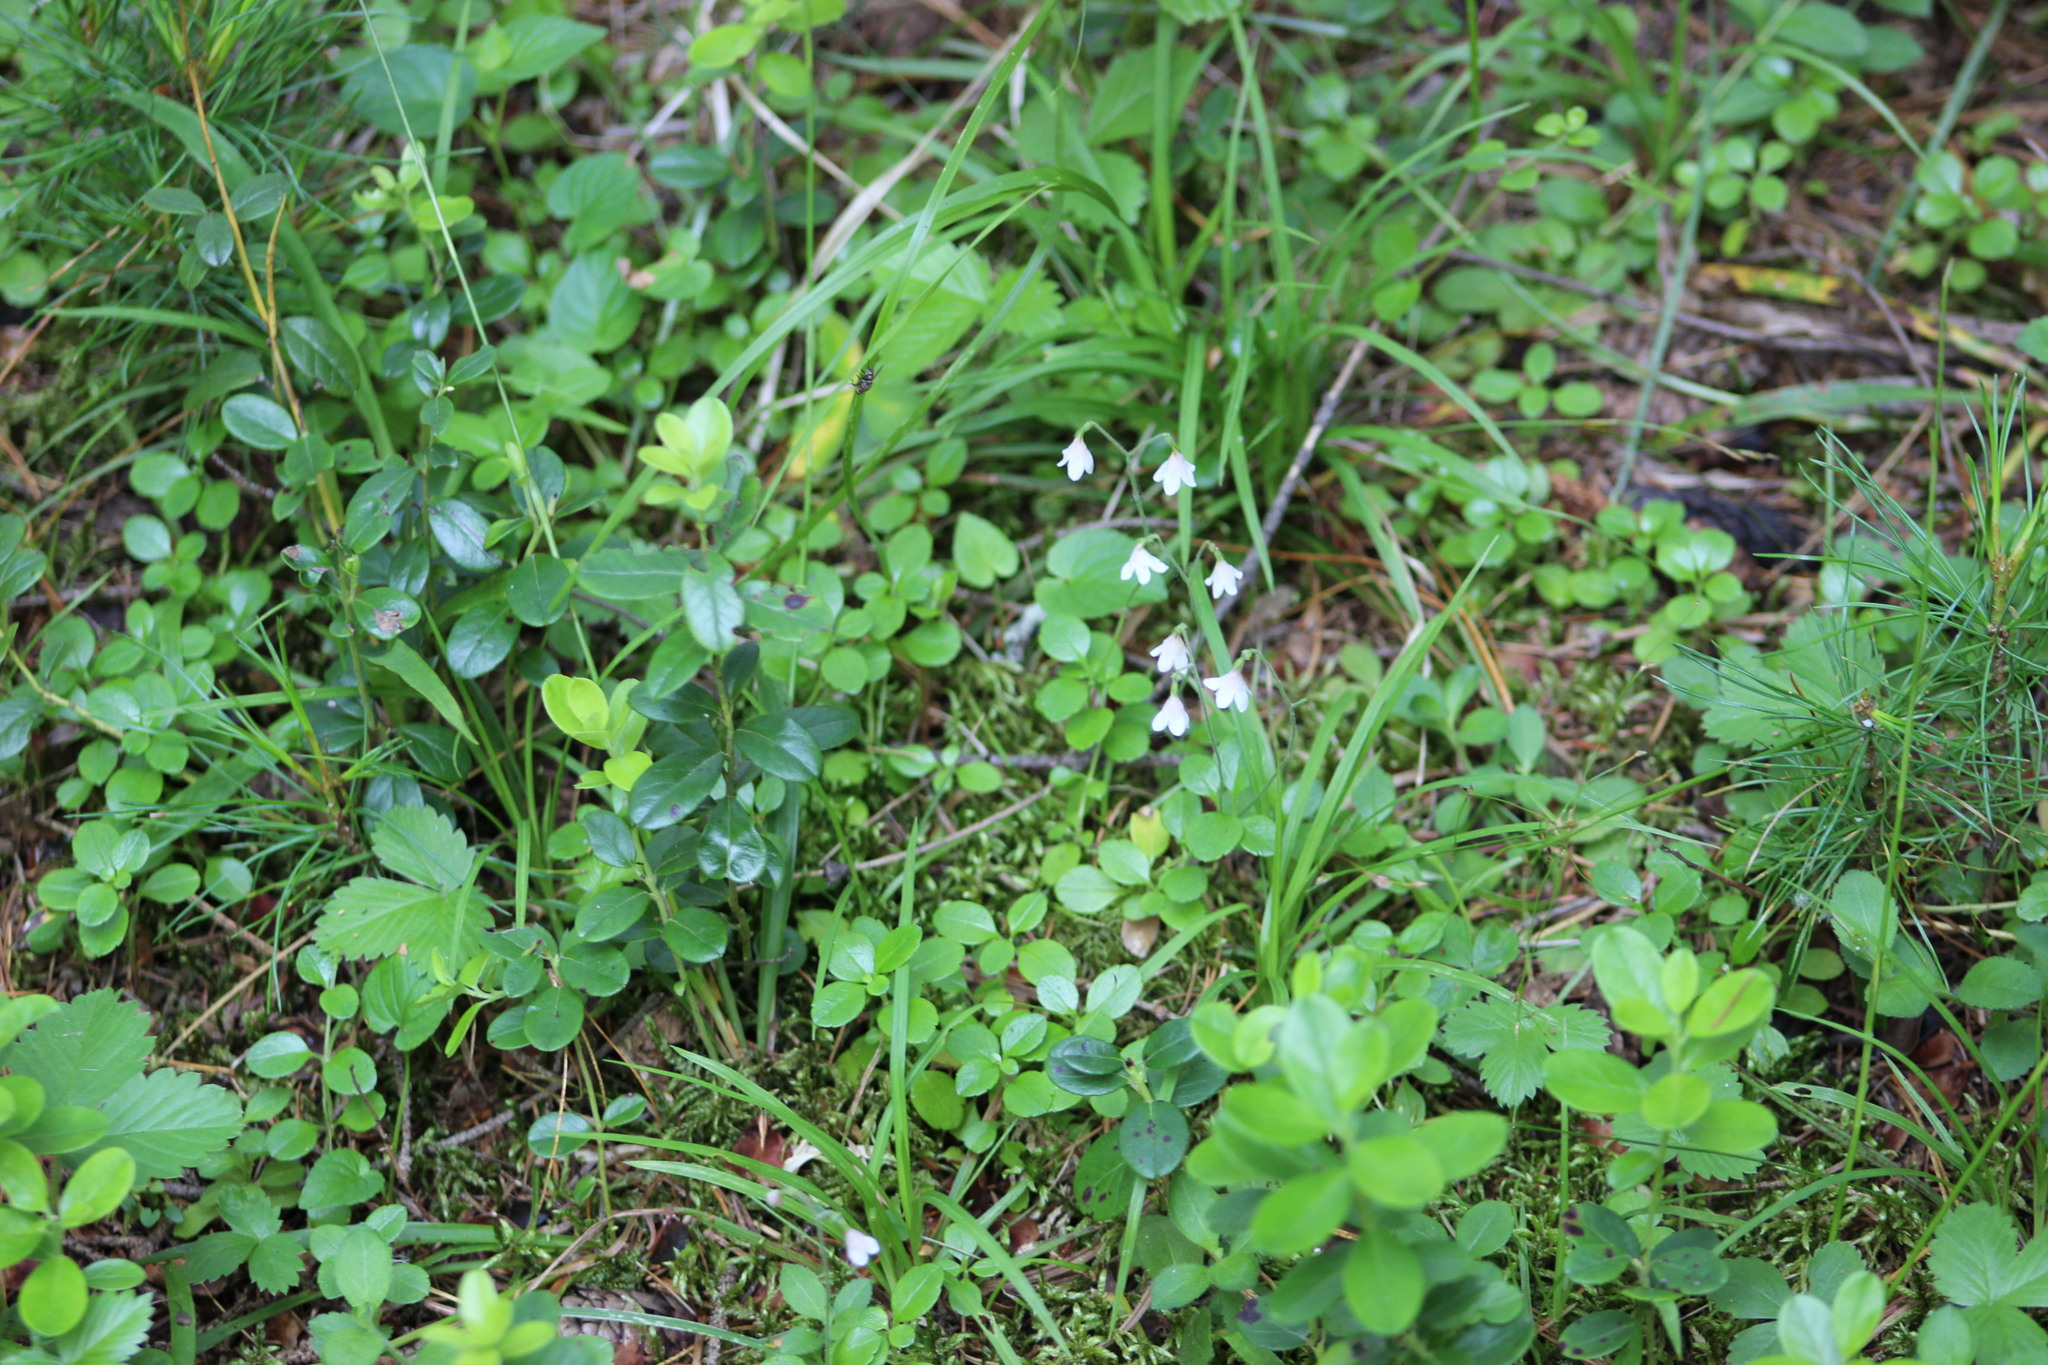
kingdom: Plantae
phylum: Tracheophyta
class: Magnoliopsida
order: Ericales
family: Ericaceae
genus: Vaccinium
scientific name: Vaccinium vitis-idaea
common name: Cowberry
